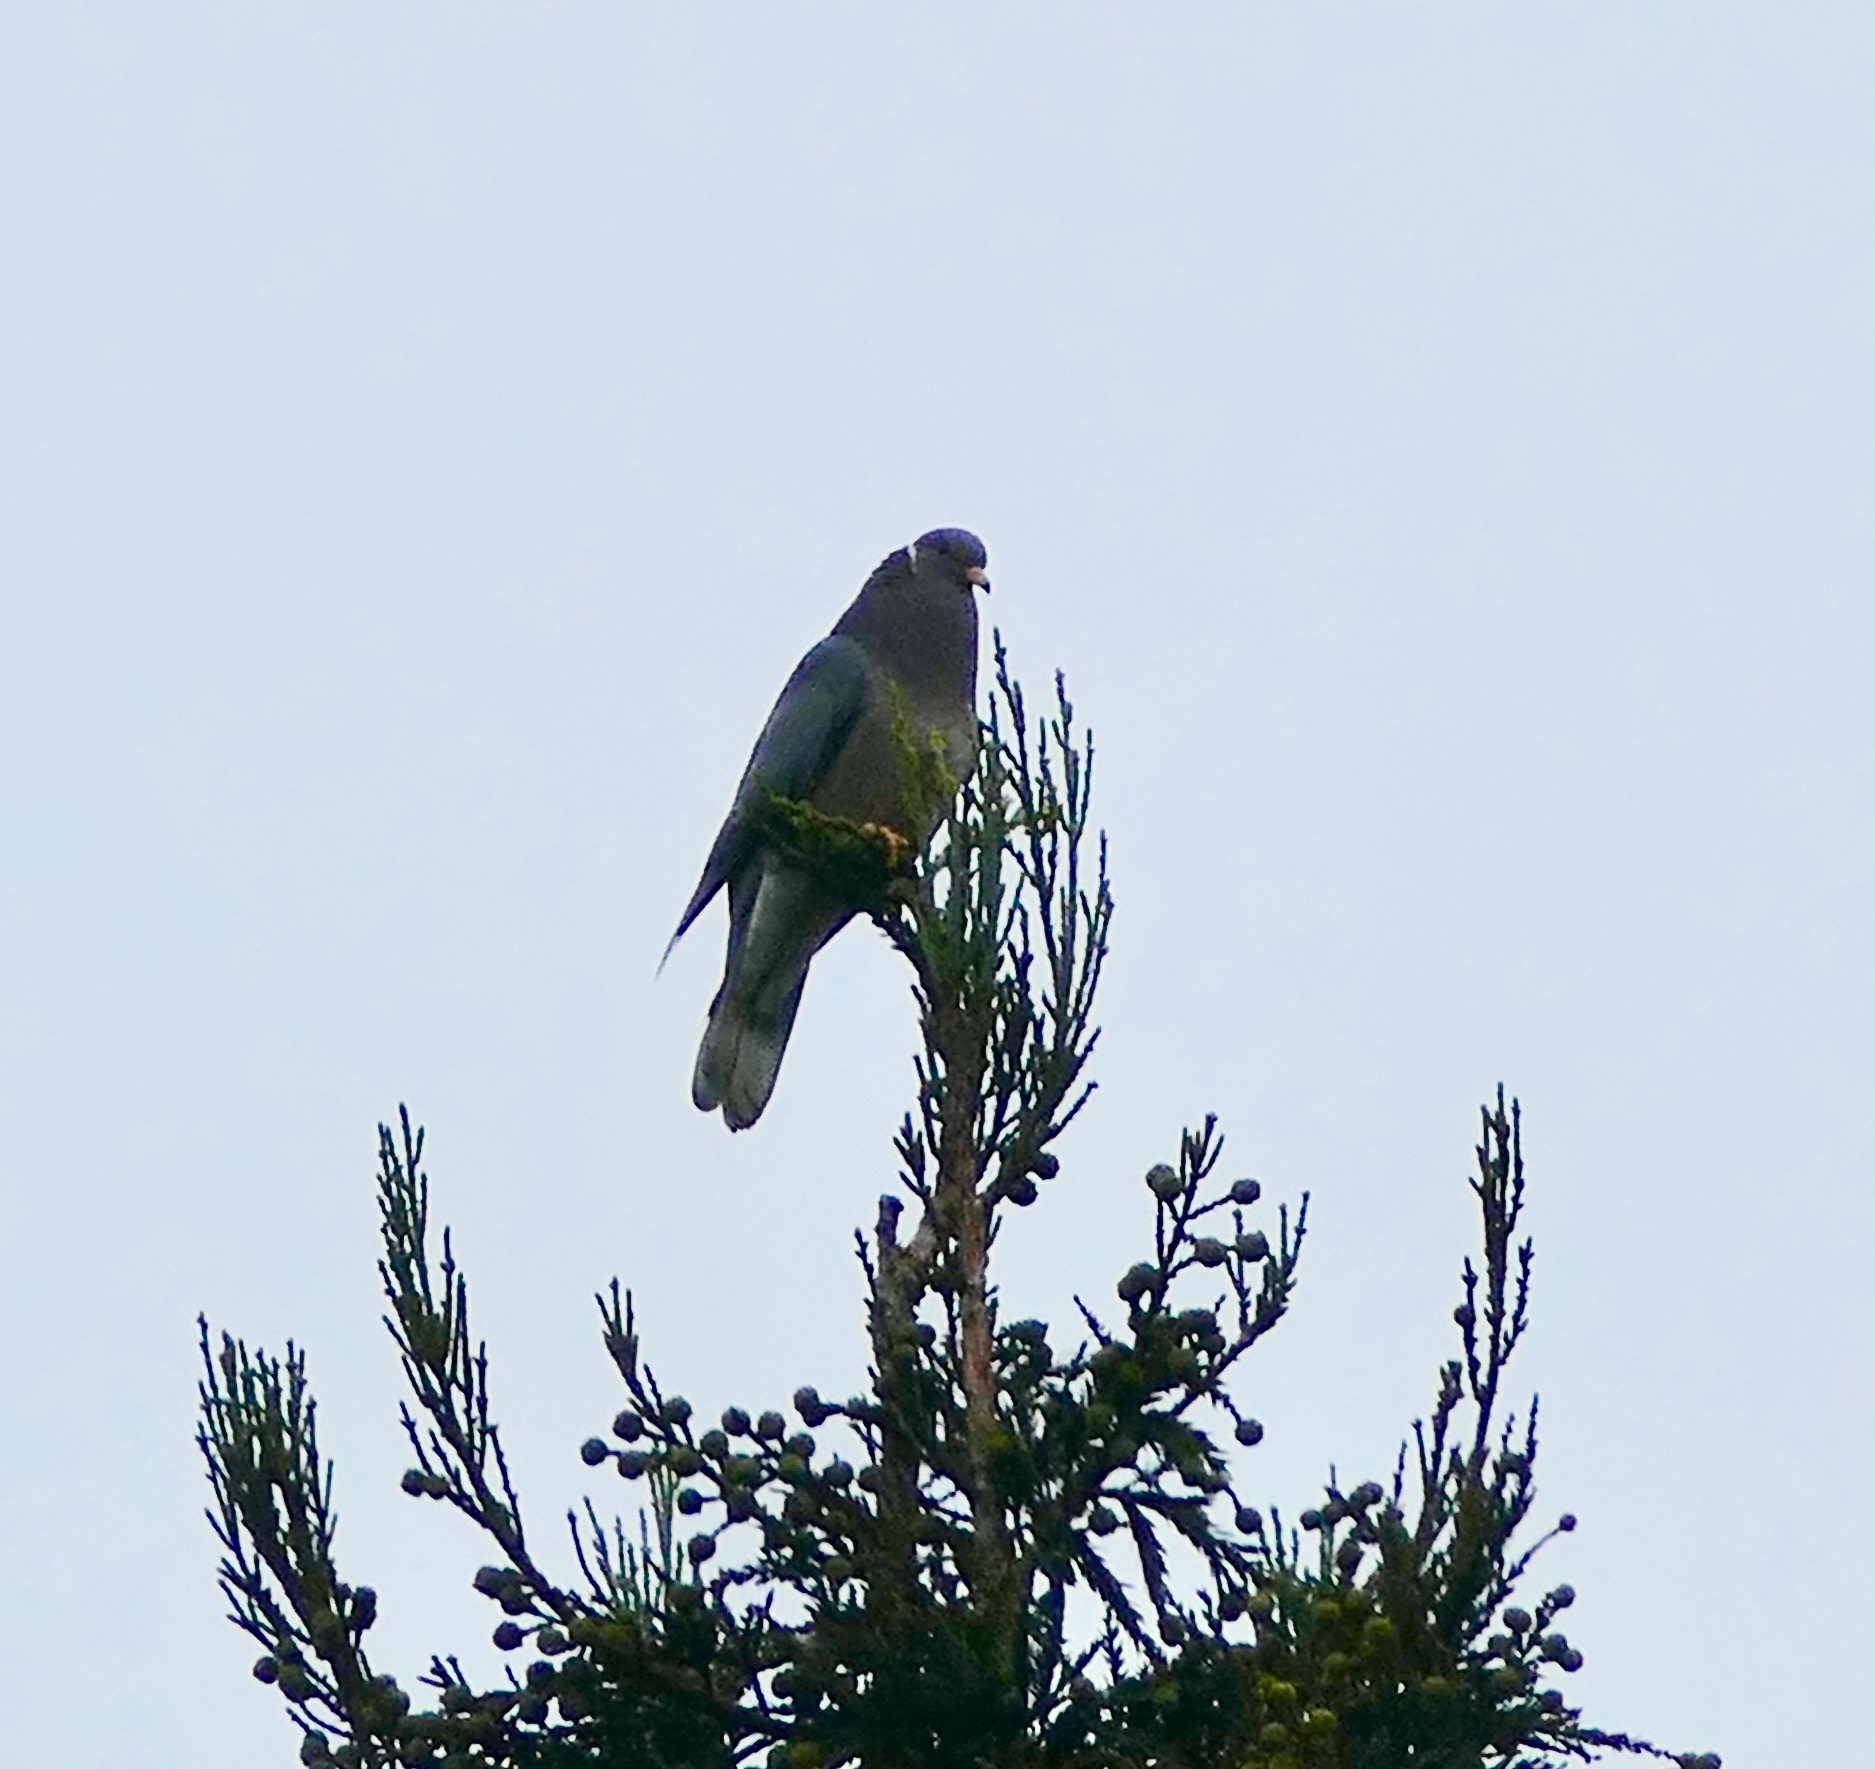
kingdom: Animalia
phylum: Chordata
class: Aves
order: Columbiformes
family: Columbidae
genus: Patagioenas
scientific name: Patagioenas fasciata
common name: Band-tailed pigeon
